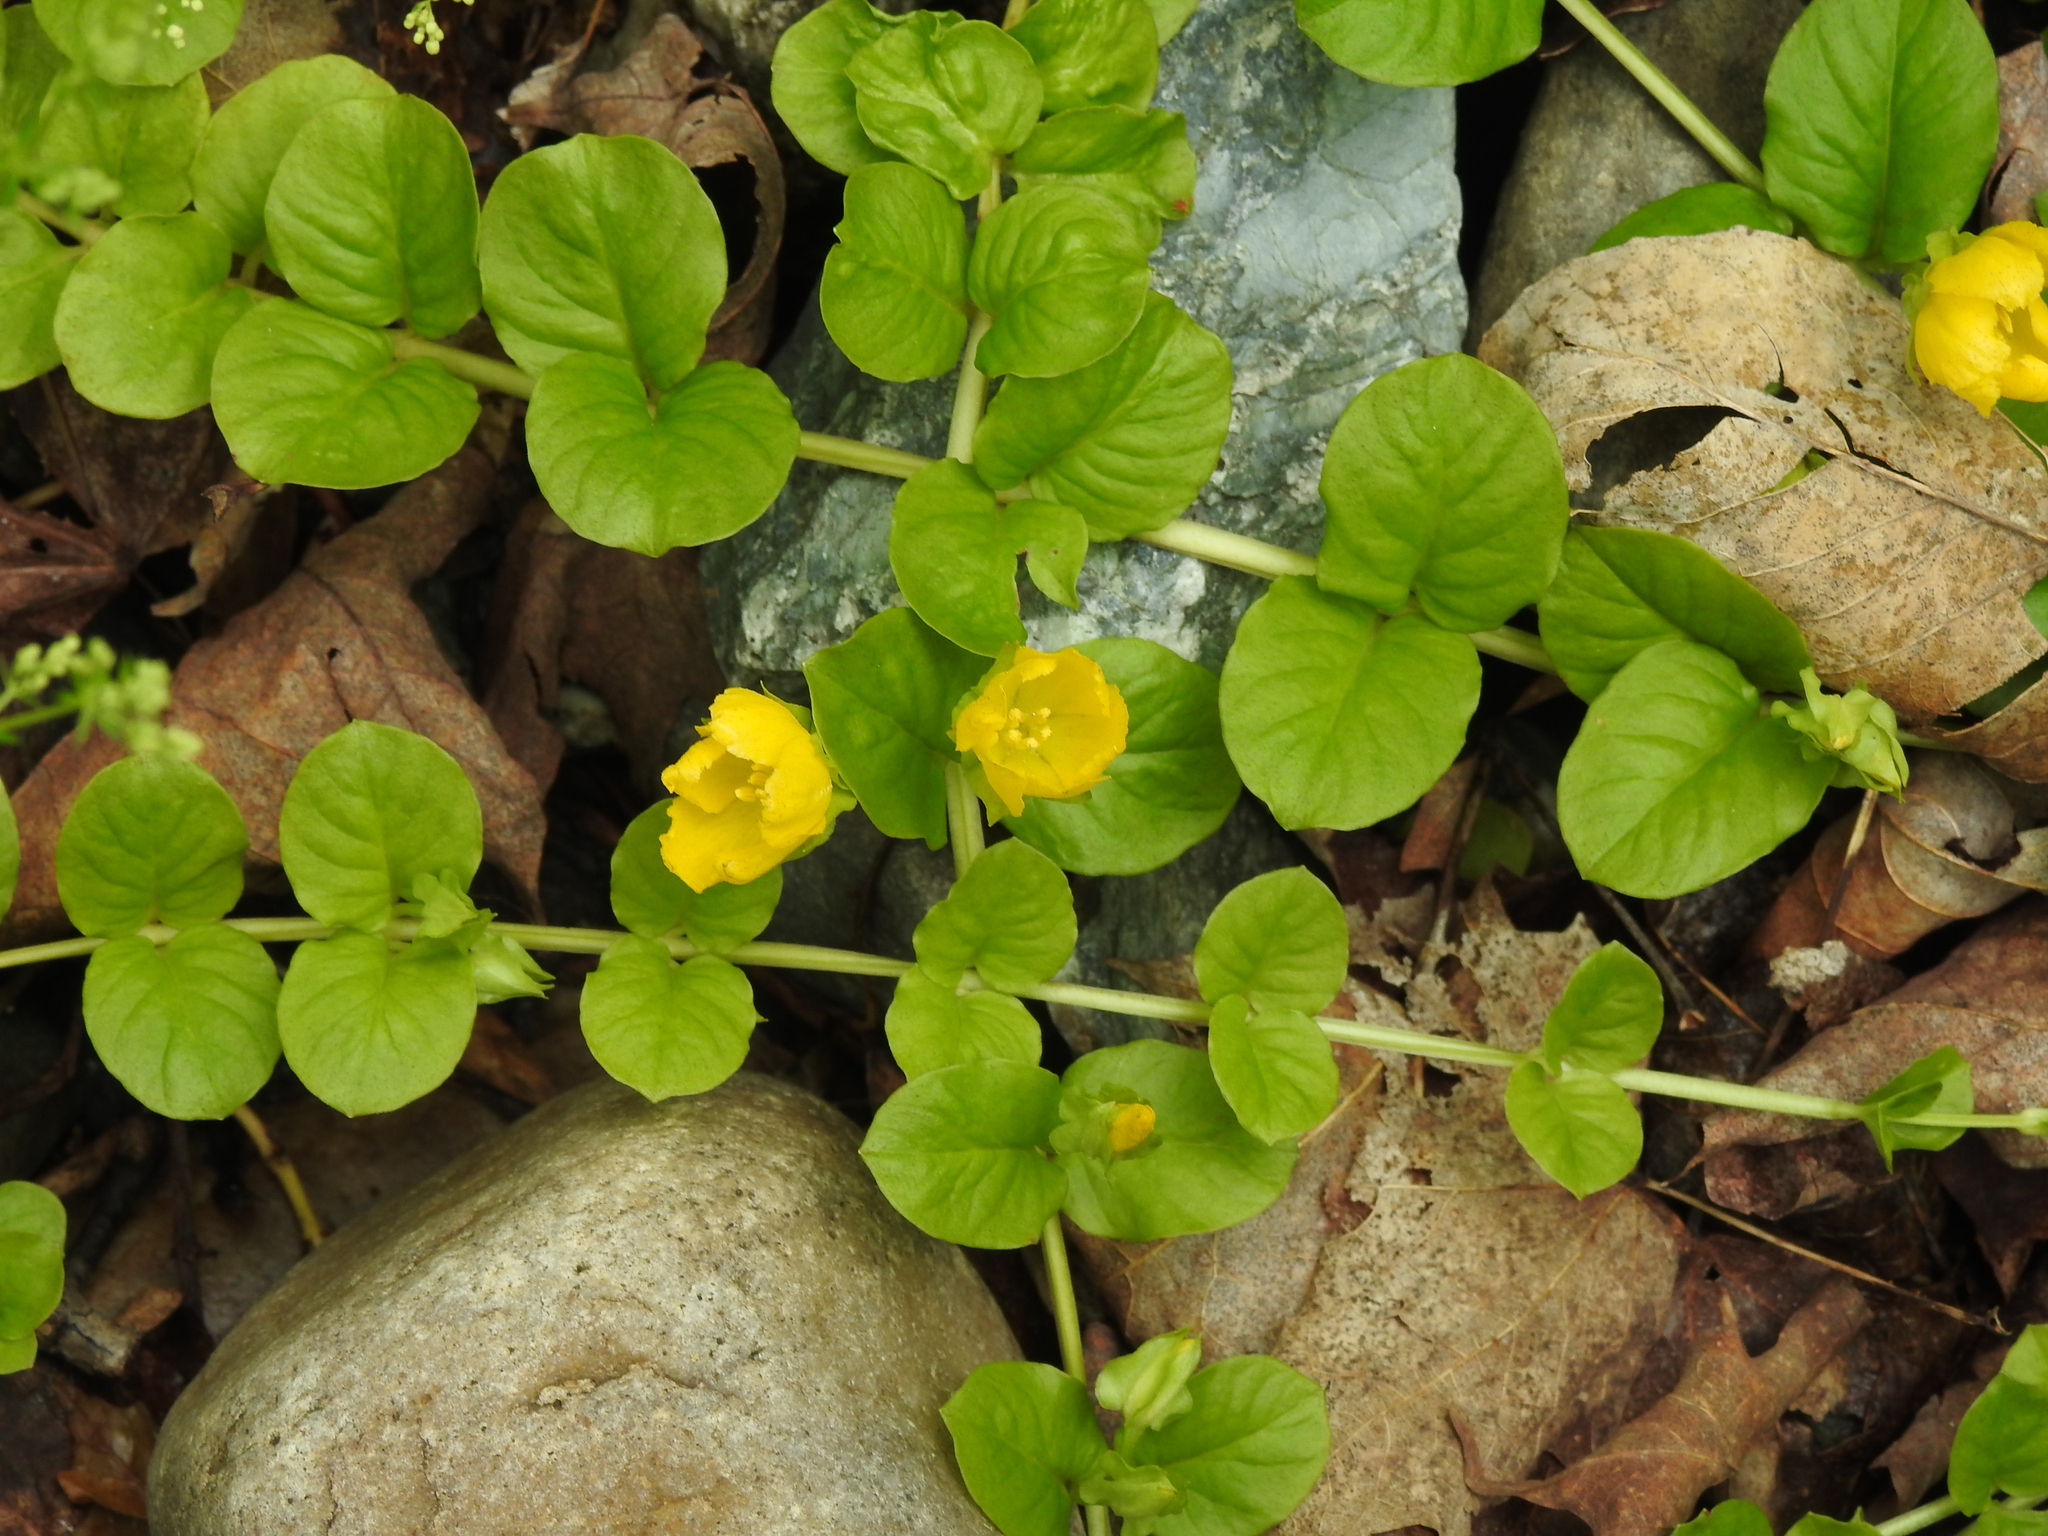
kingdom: Plantae
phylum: Tracheophyta
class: Magnoliopsida
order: Ericales
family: Primulaceae
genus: Lysimachia
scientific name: Lysimachia nummularia
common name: Moneywort
